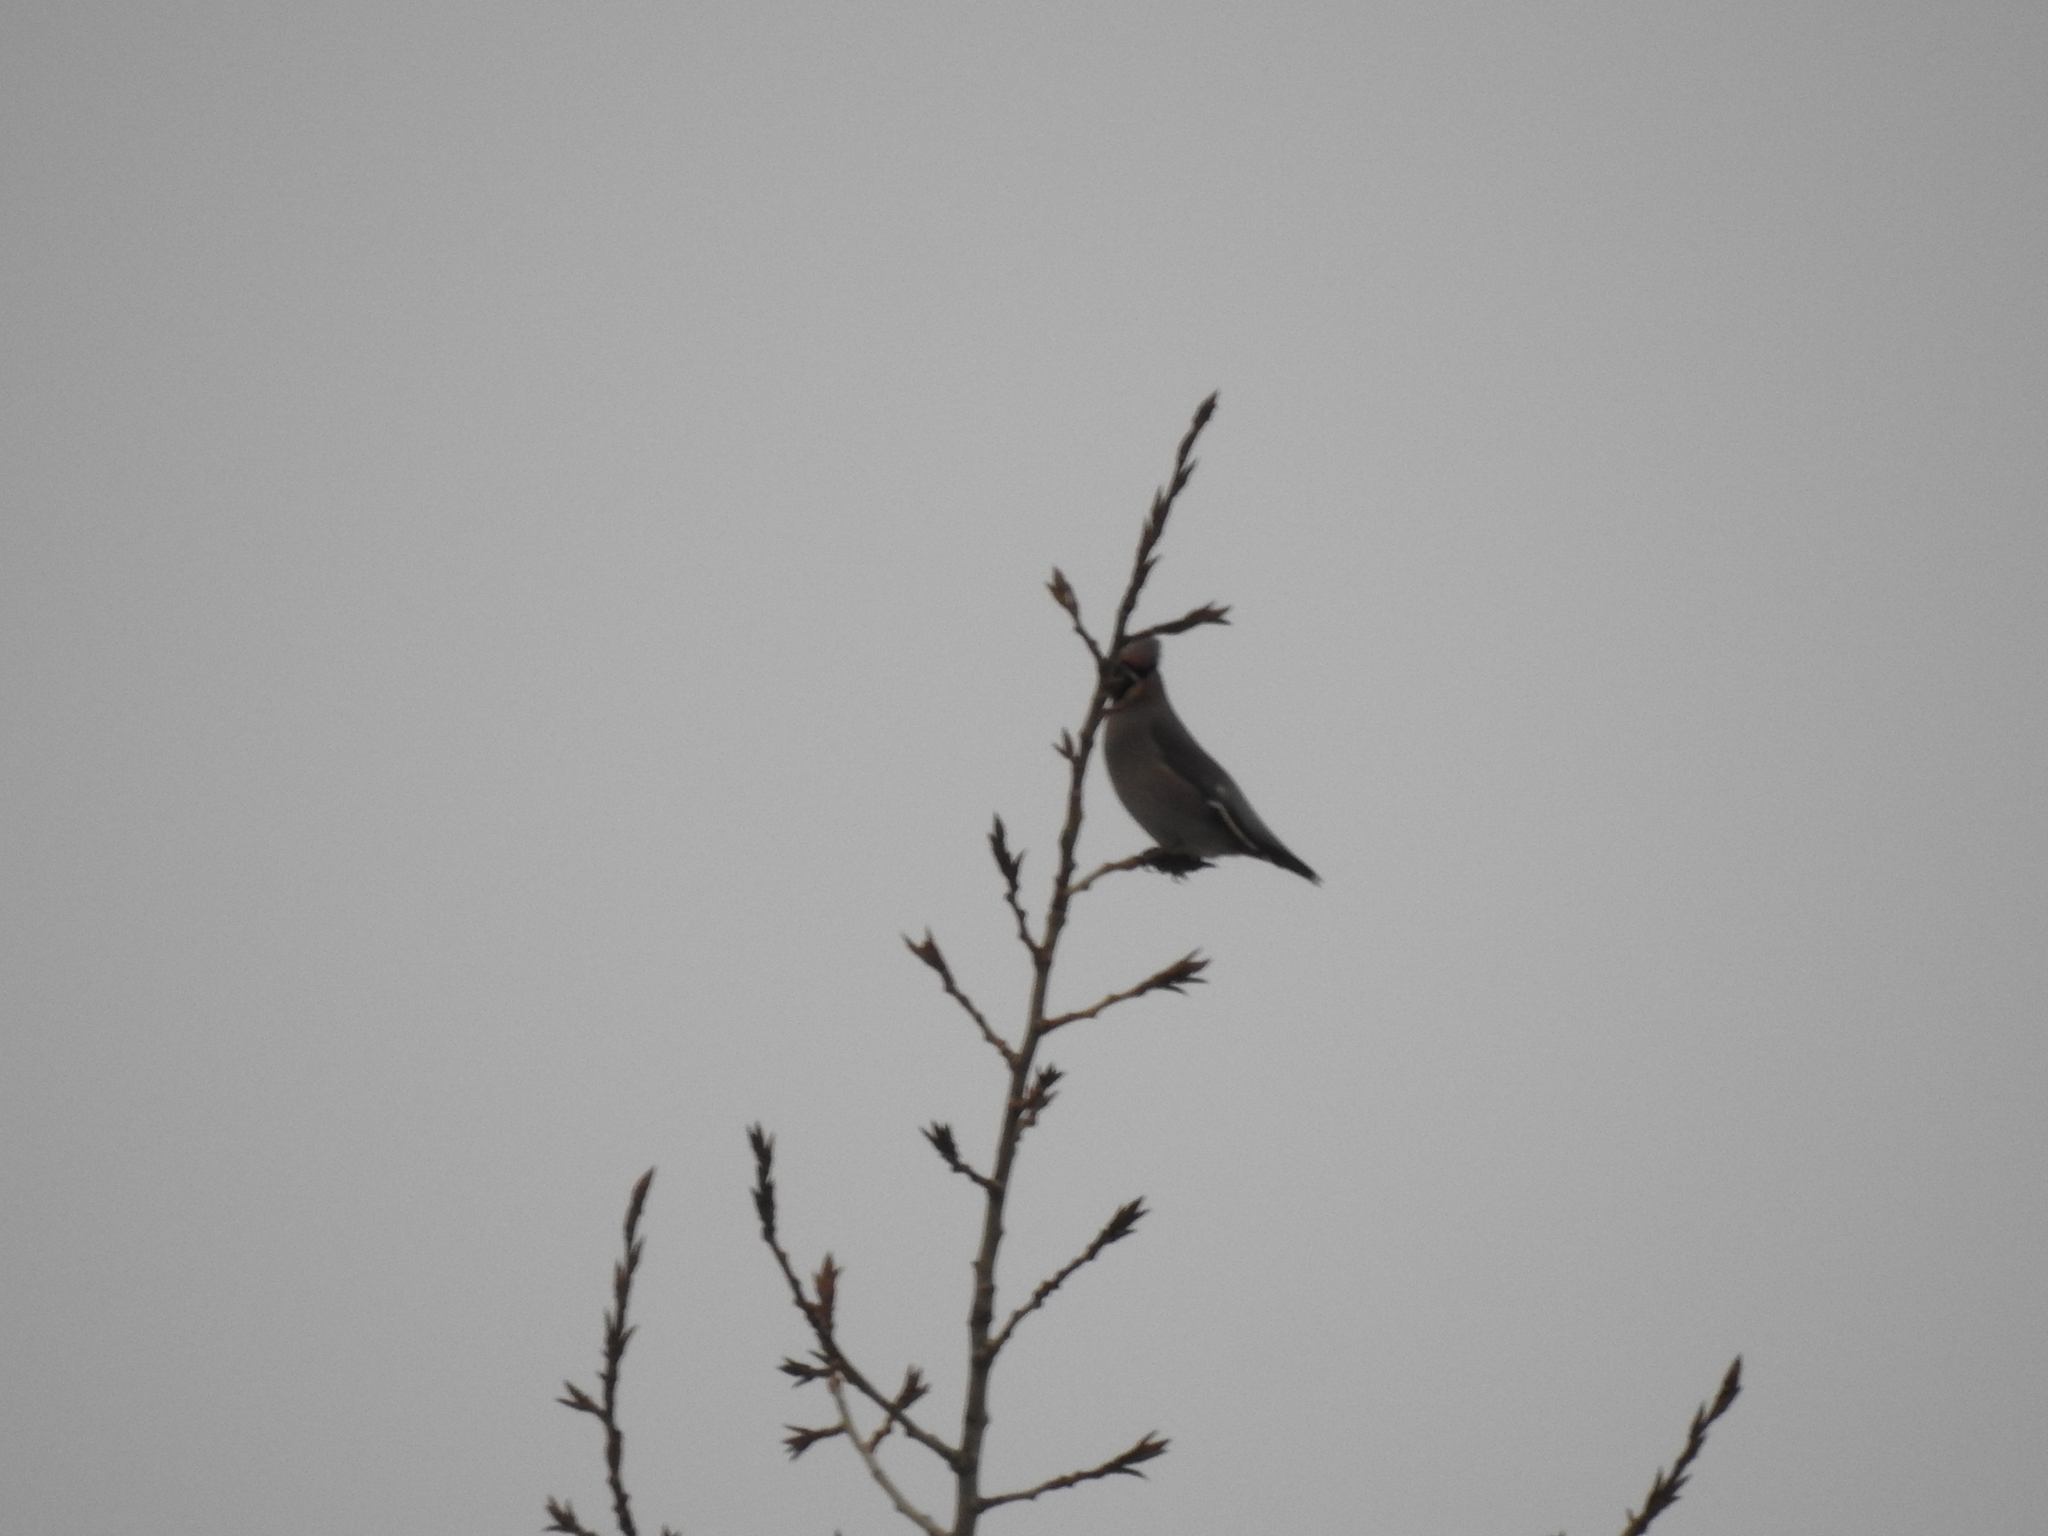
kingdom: Animalia
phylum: Chordata
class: Aves
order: Passeriformes
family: Bombycillidae
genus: Bombycilla
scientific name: Bombycilla garrulus
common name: Bohemian waxwing
